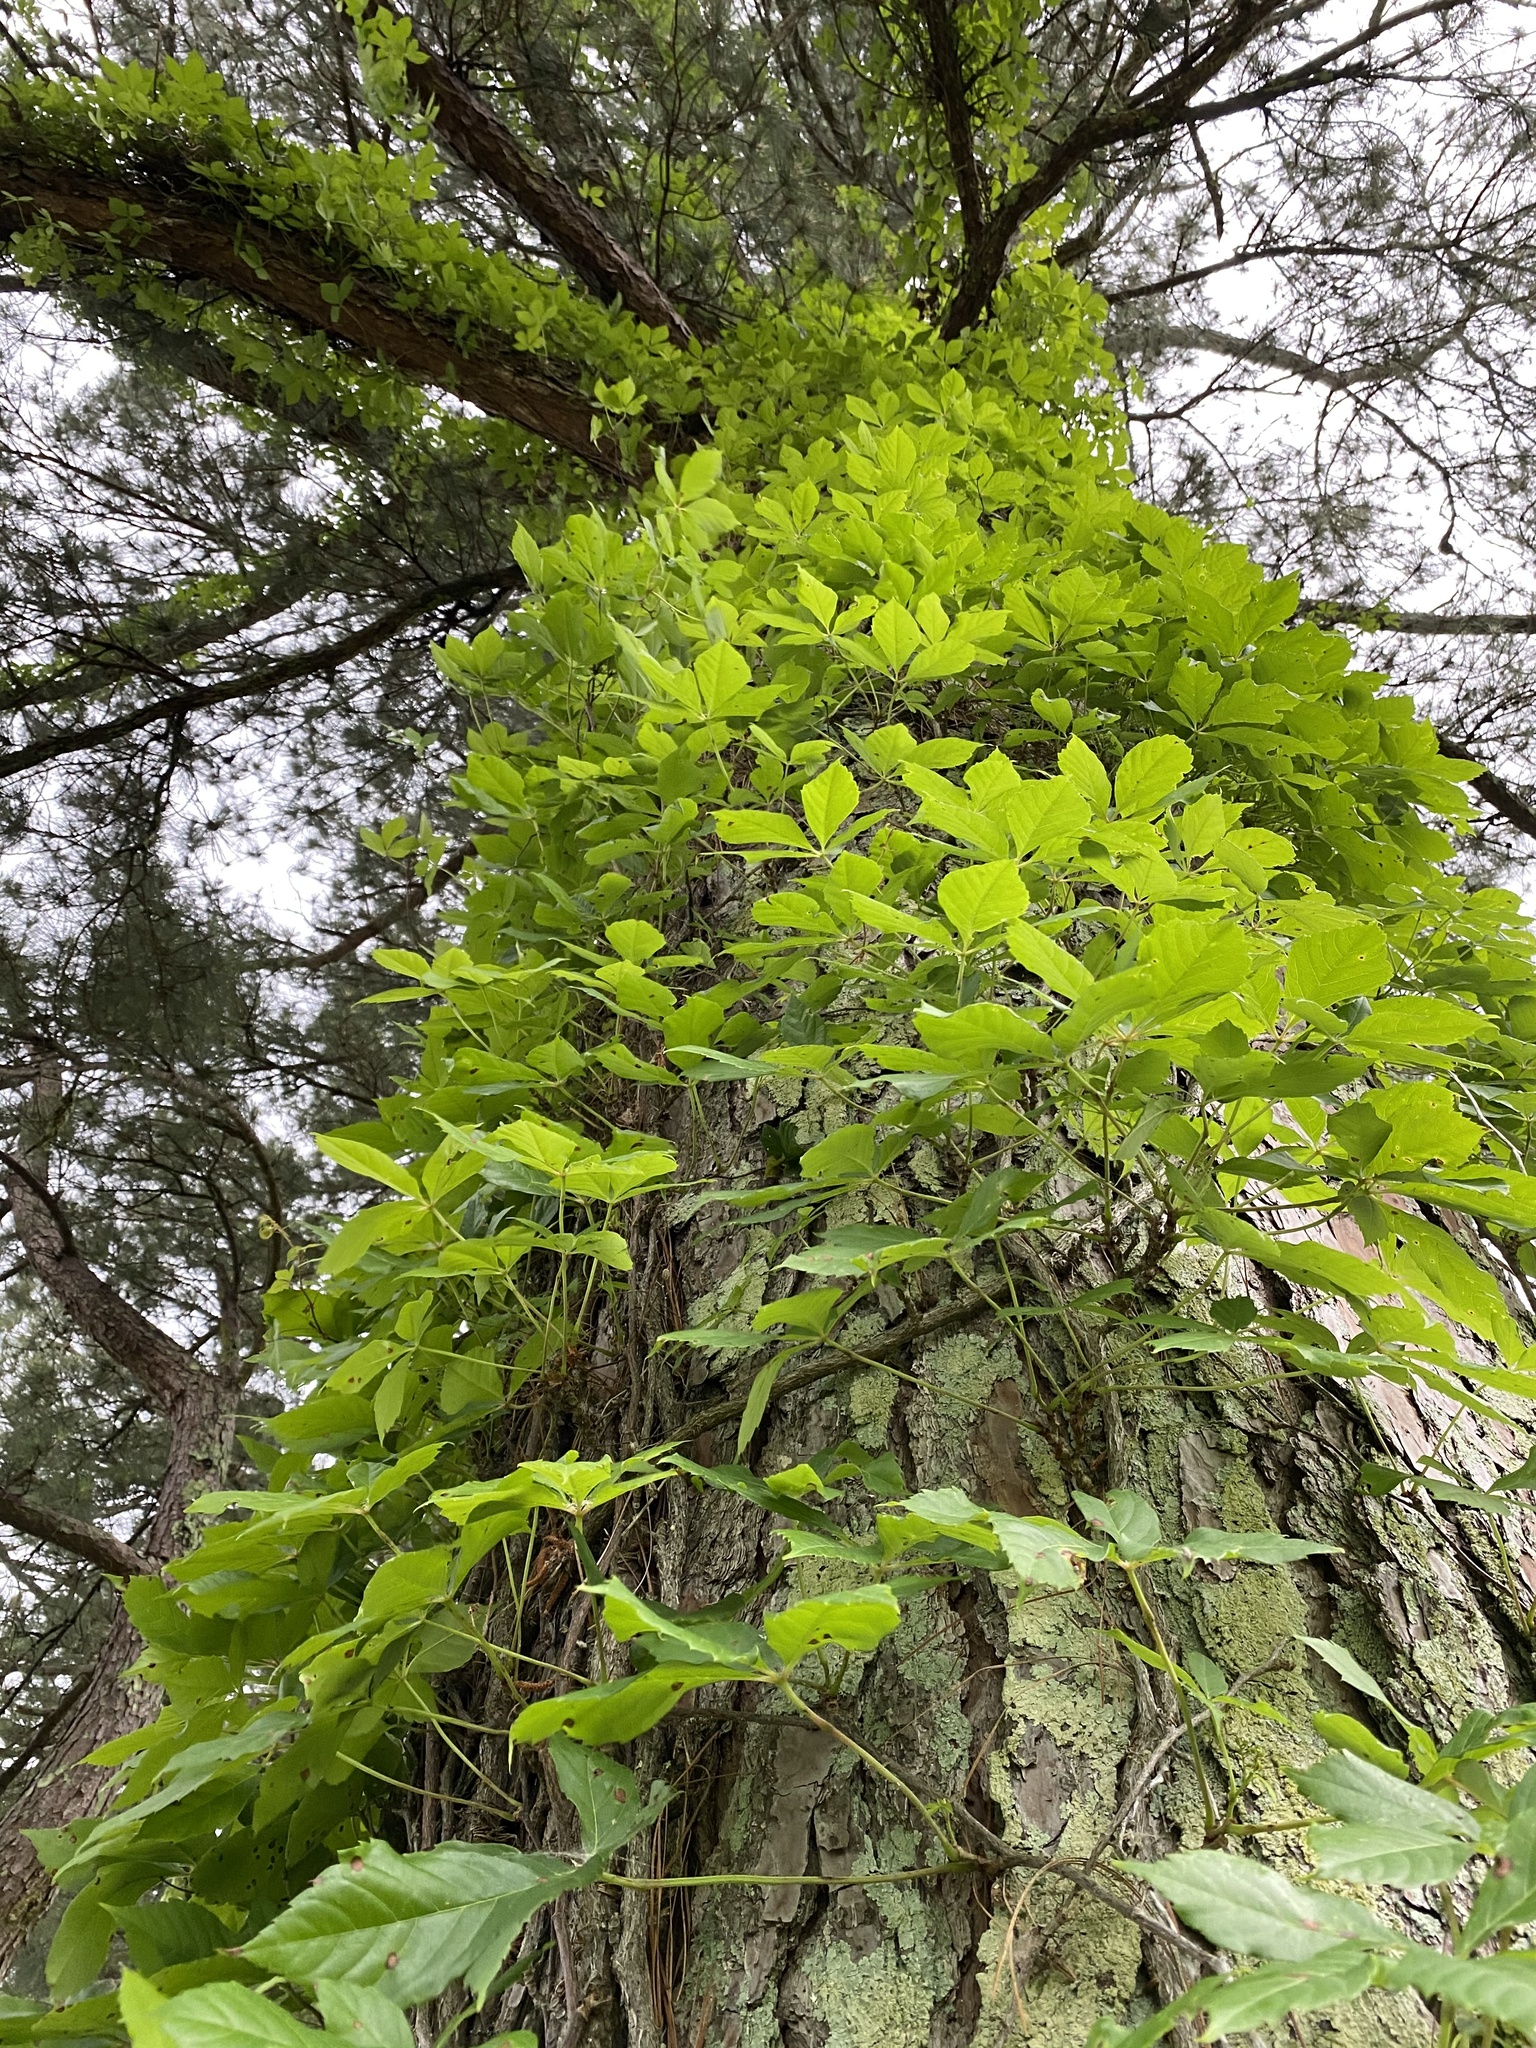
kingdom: Plantae
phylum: Tracheophyta
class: Magnoliopsida
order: Vitales
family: Vitaceae
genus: Parthenocissus
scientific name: Parthenocissus quinquefolia
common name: Virginia-creeper
